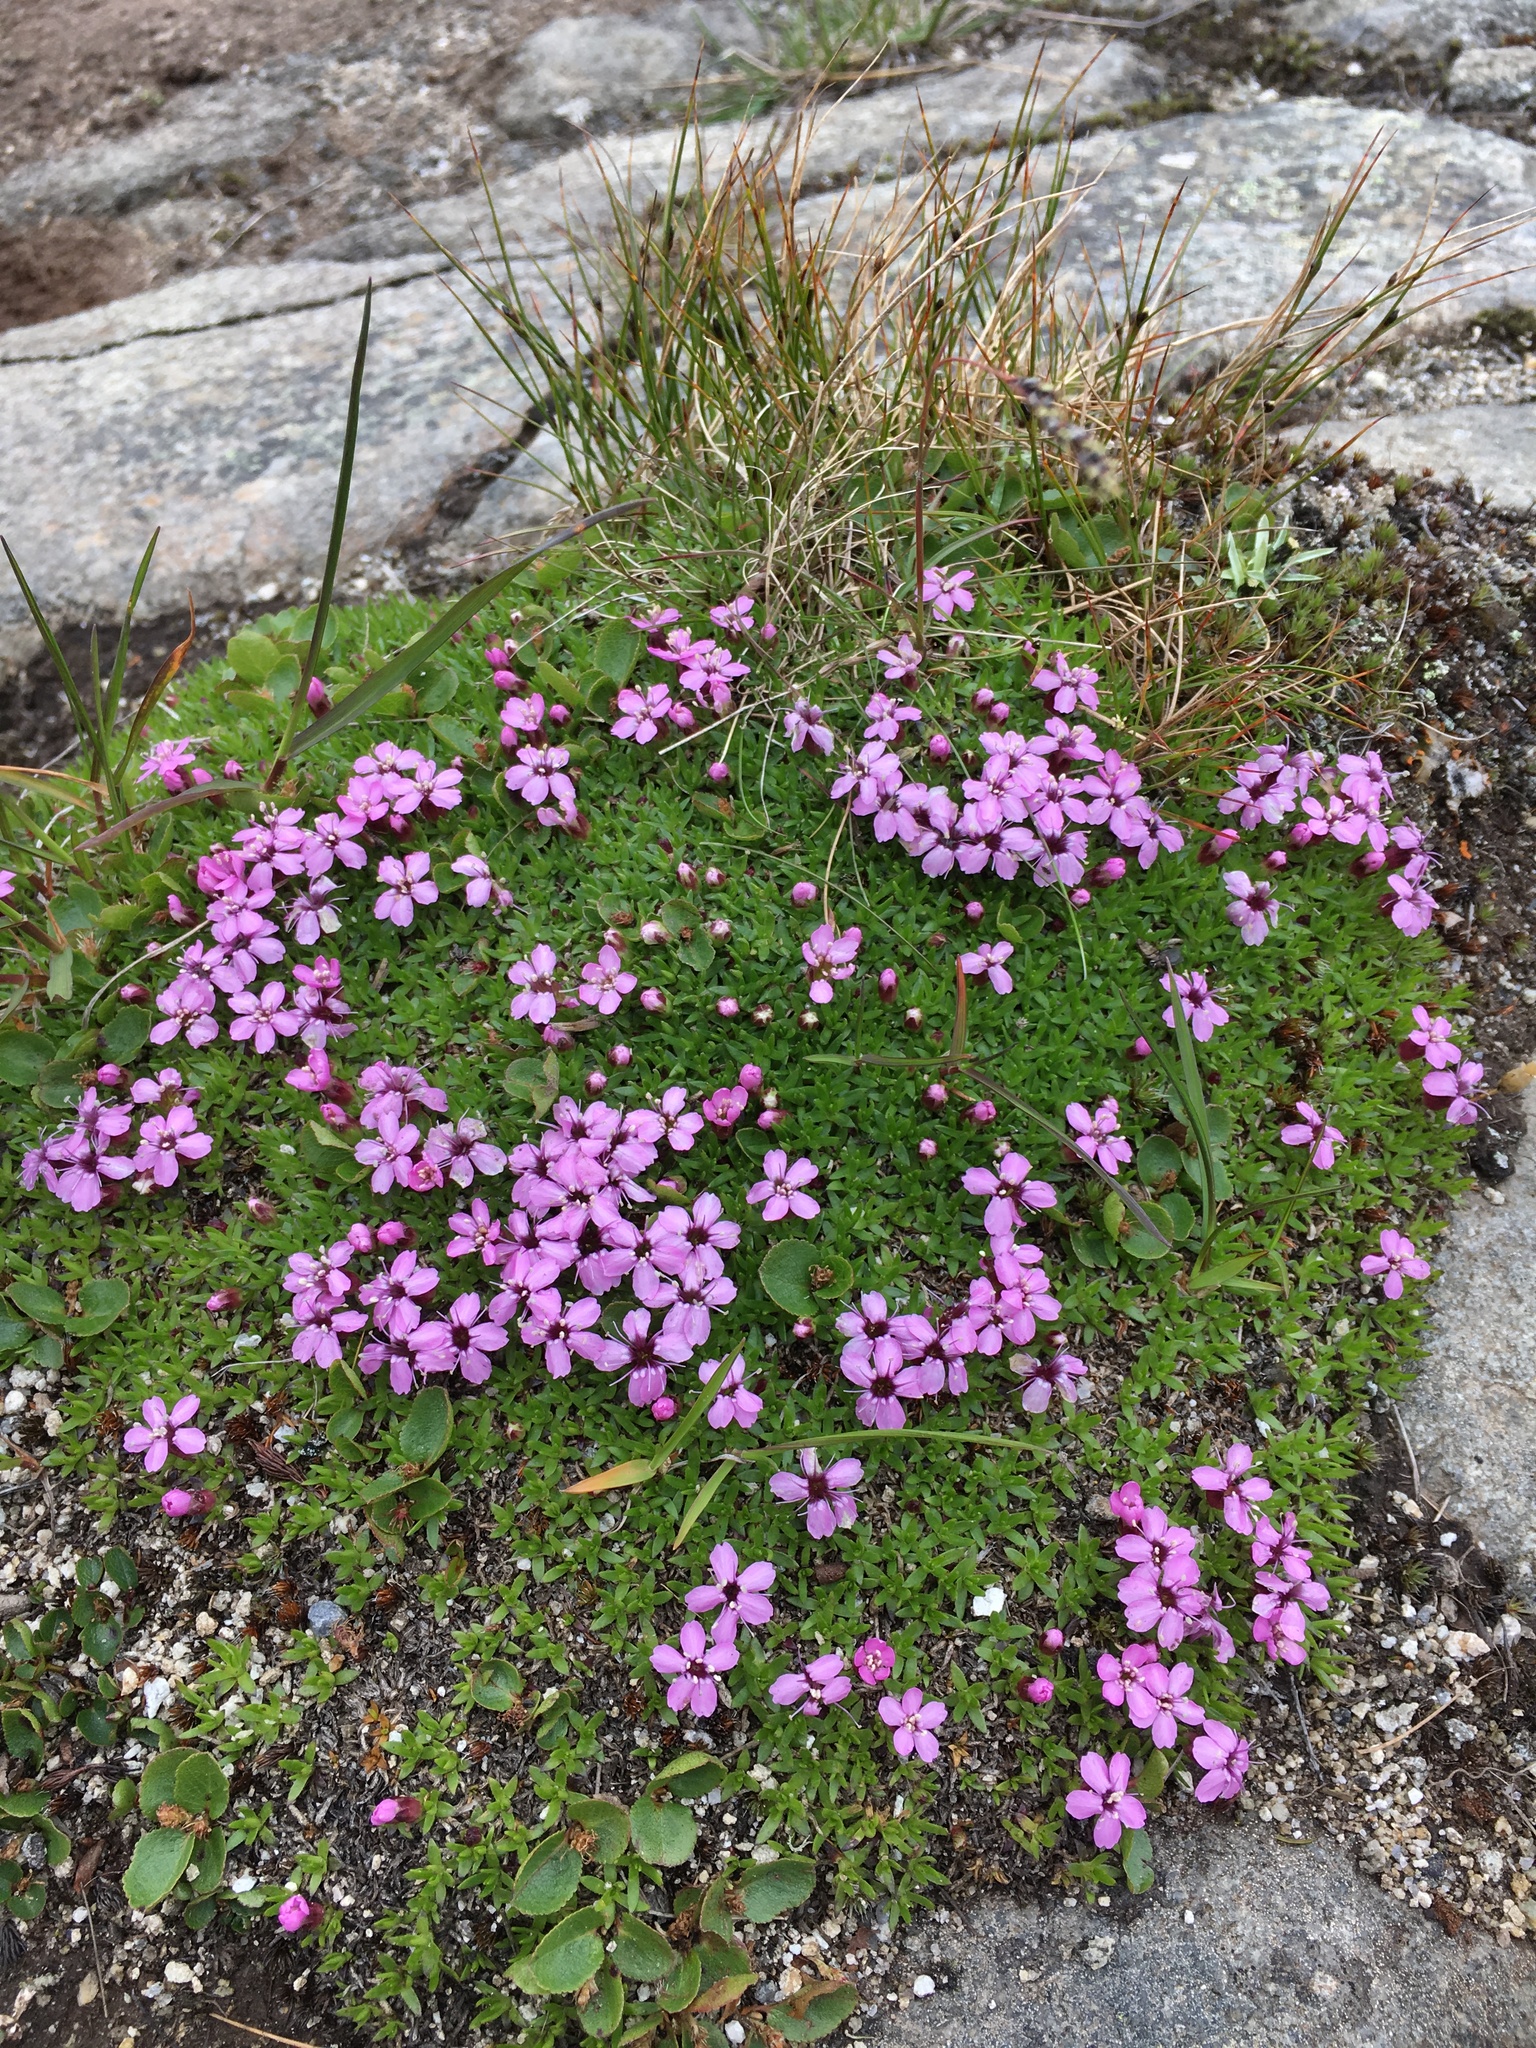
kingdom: Plantae
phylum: Tracheophyta
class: Magnoliopsida
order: Caryophyllales
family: Caryophyllaceae
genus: Silene
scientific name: Silene acaulis
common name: Moss campion
